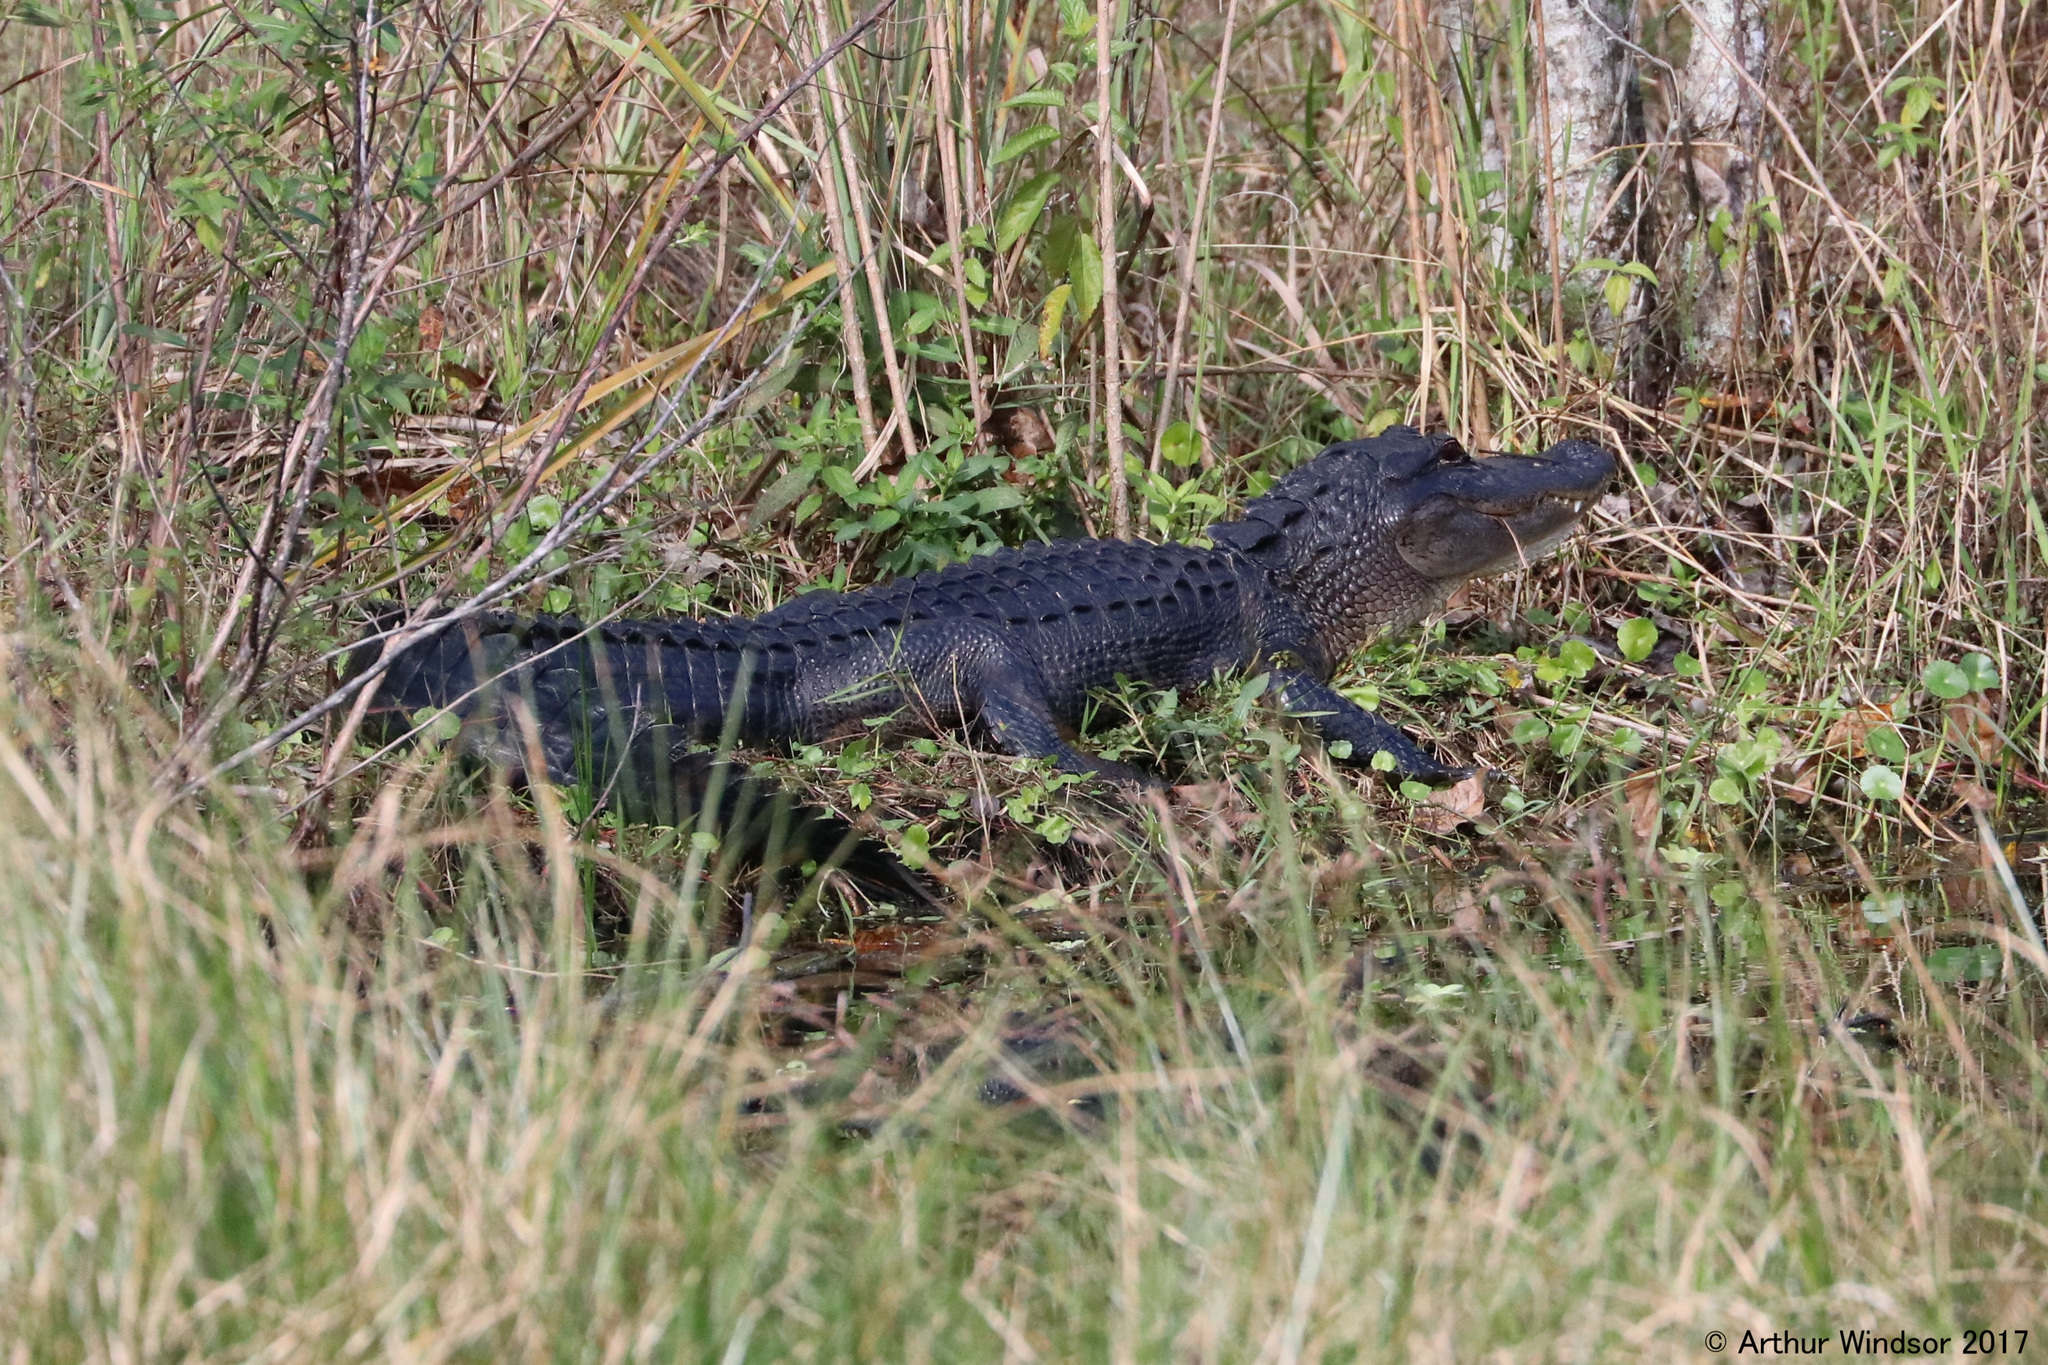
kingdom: Animalia
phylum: Chordata
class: Crocodylia
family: Alligatoridae
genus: Alligator
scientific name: Alligator mississippiensis
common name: American alligator
